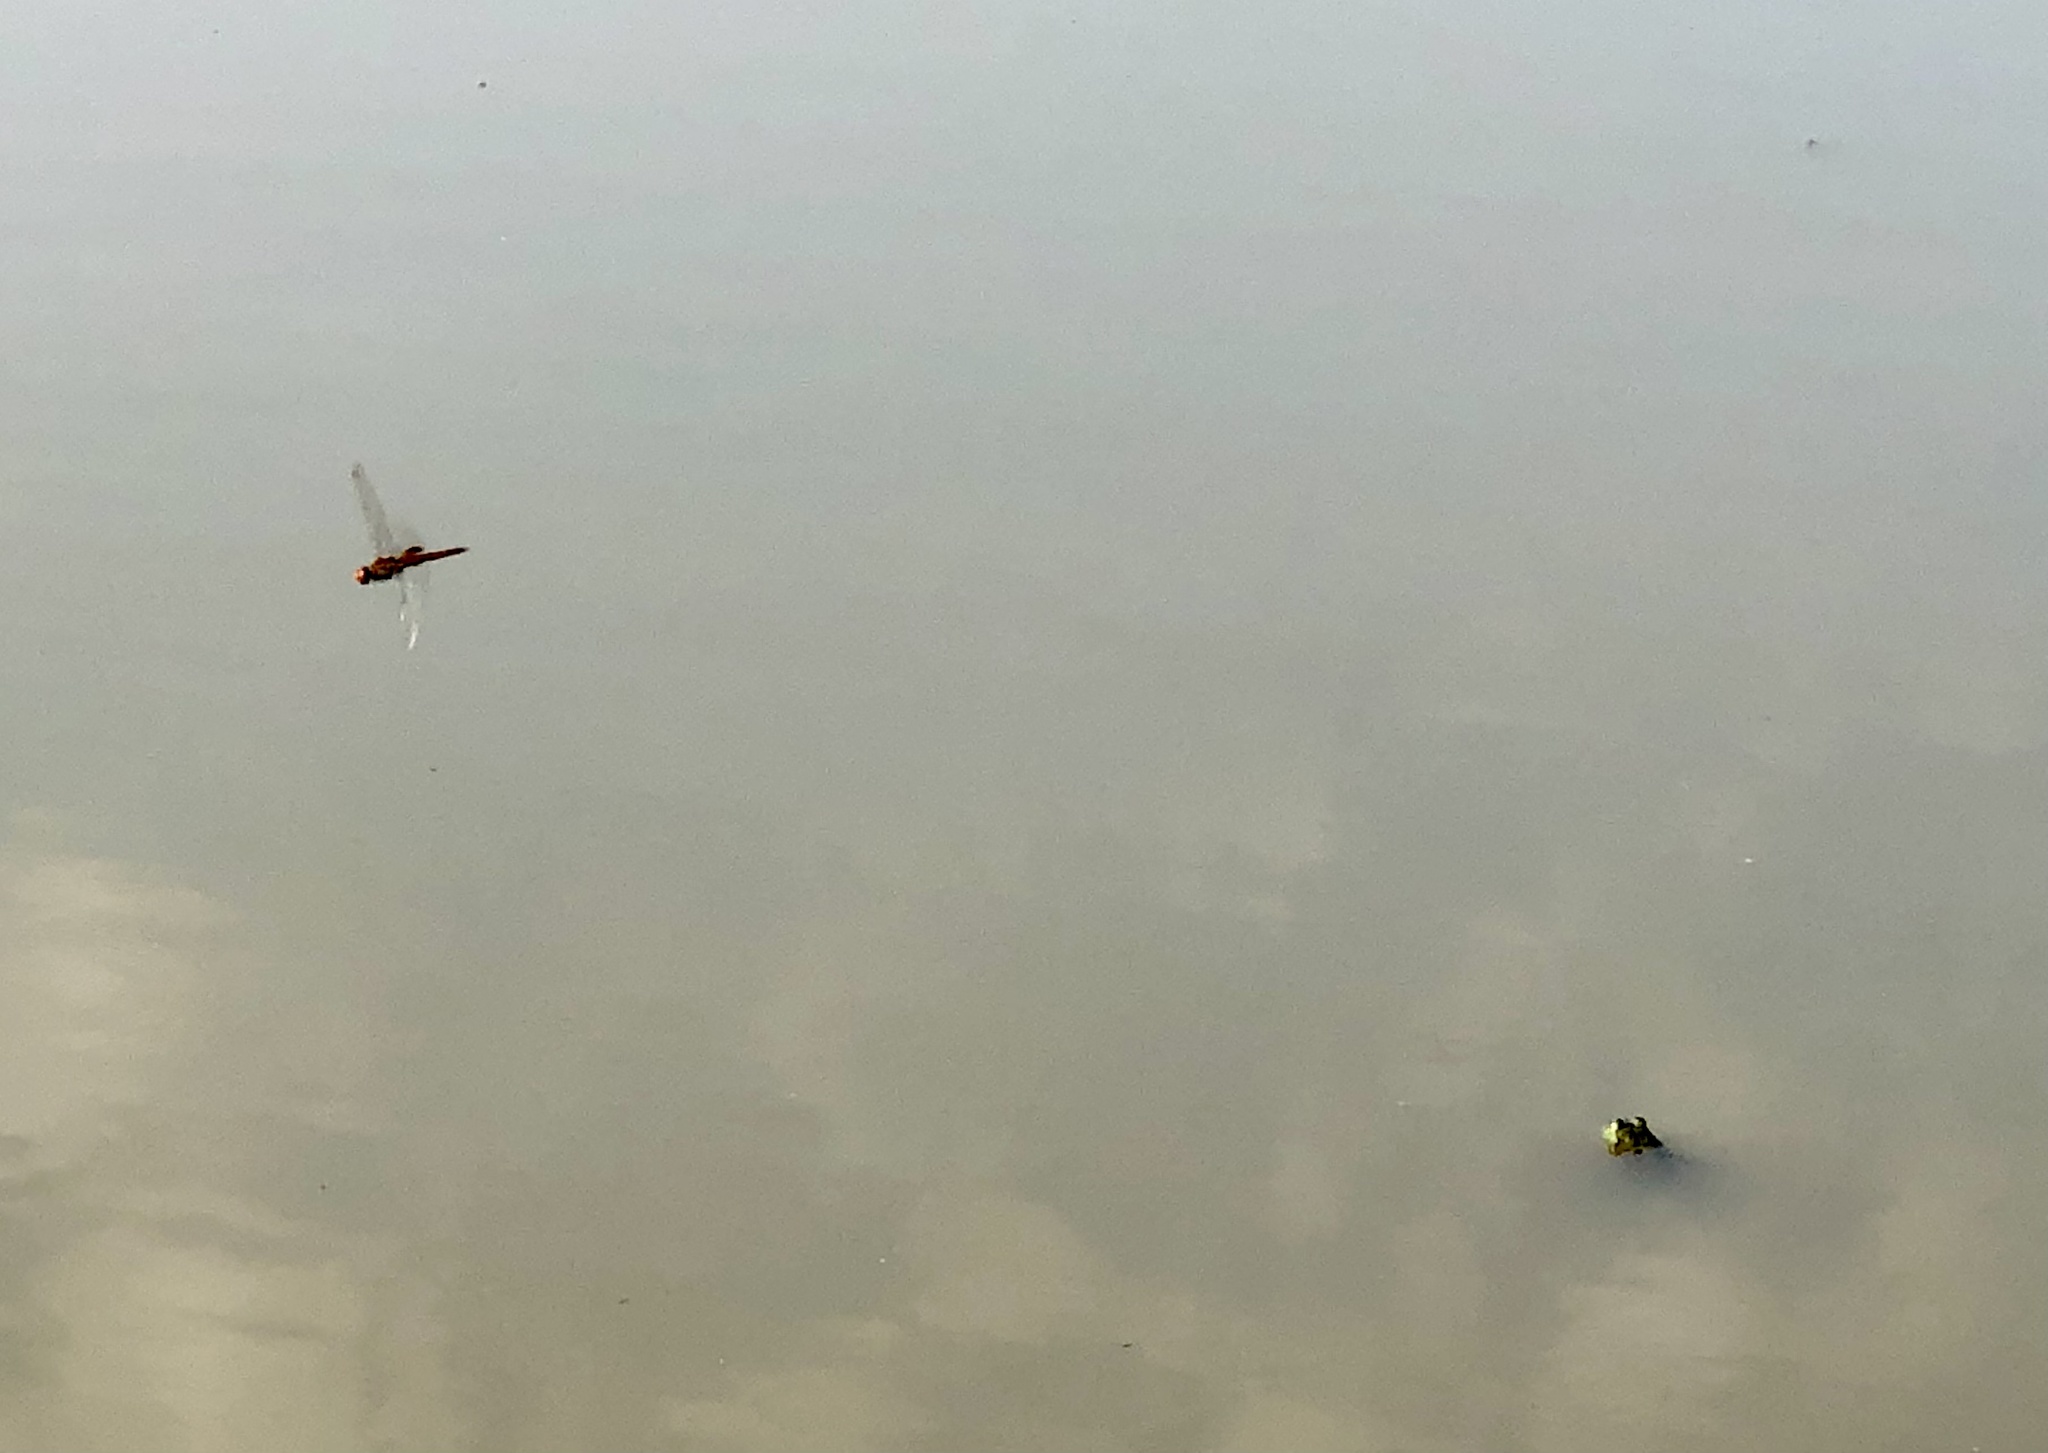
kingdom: Animalia
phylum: Arthropoda
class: Insecta
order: Odonata
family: Libellulidae
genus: Pantala
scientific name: Pantala hymenaea
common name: Spot-winged glider
